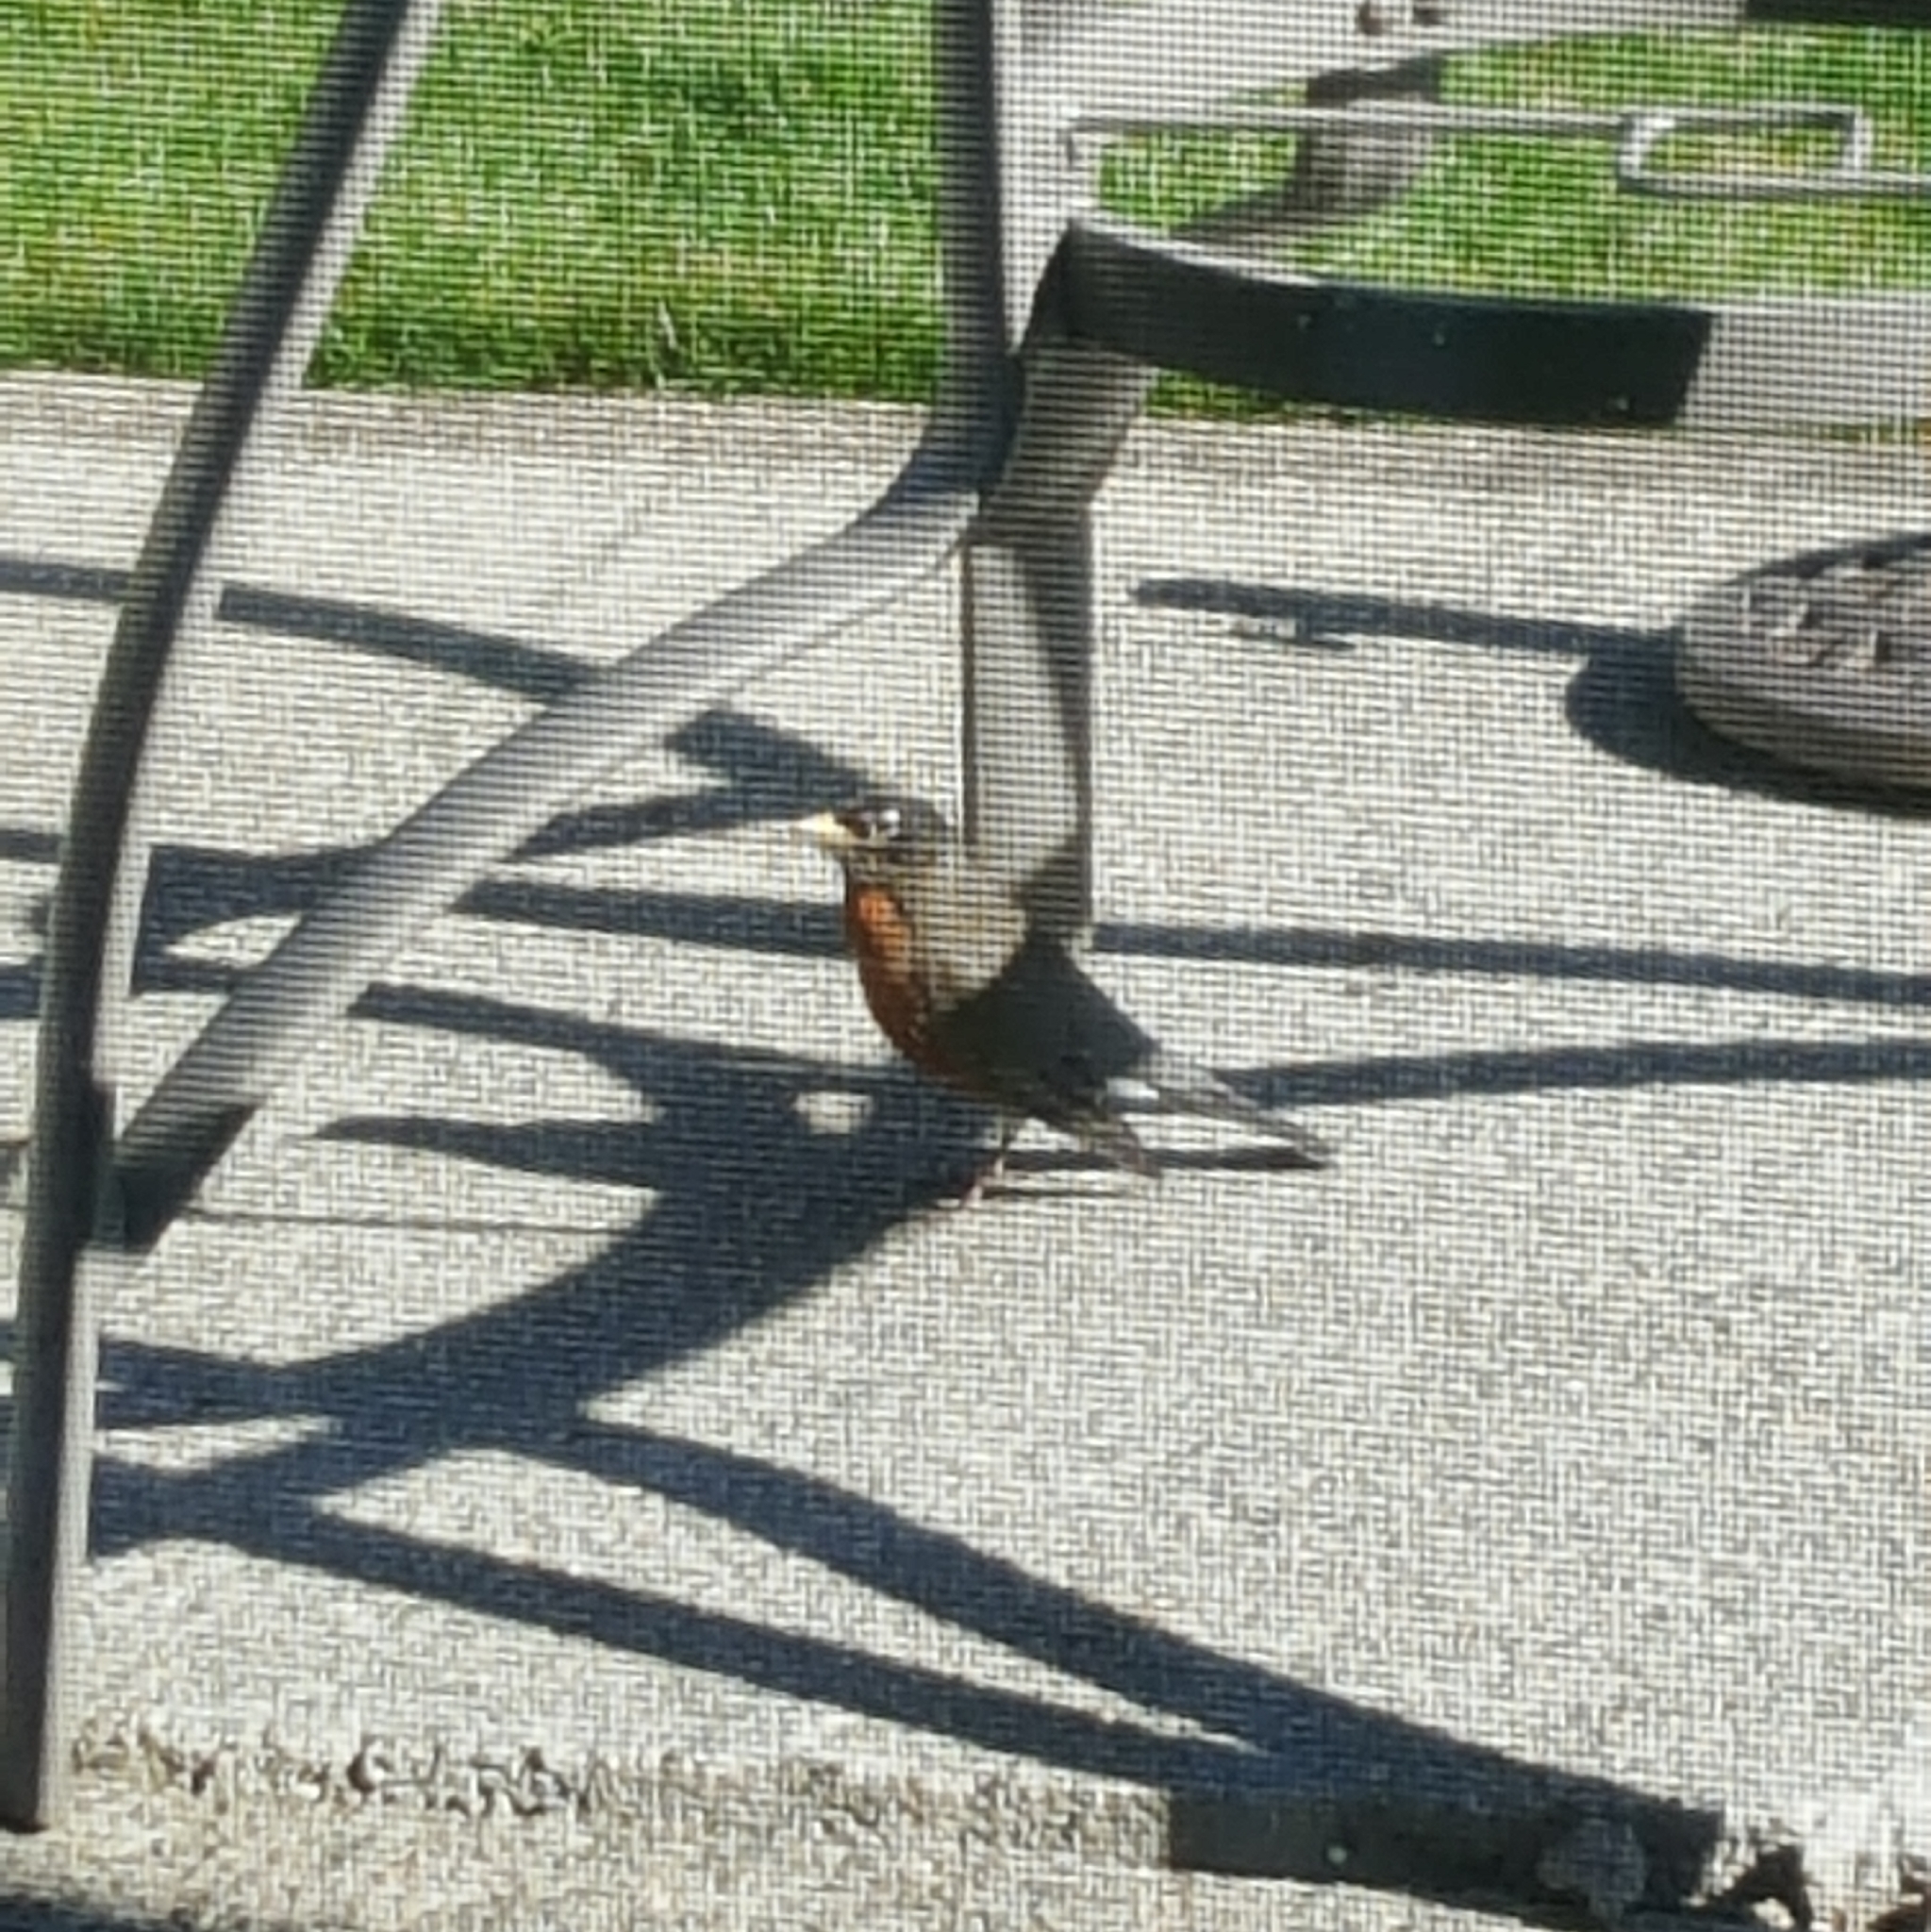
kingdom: Animalia
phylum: Chordata
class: Aves
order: Passeriformes
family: Turdidae
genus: Turdus
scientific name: Turdus migratorius
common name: American robin
